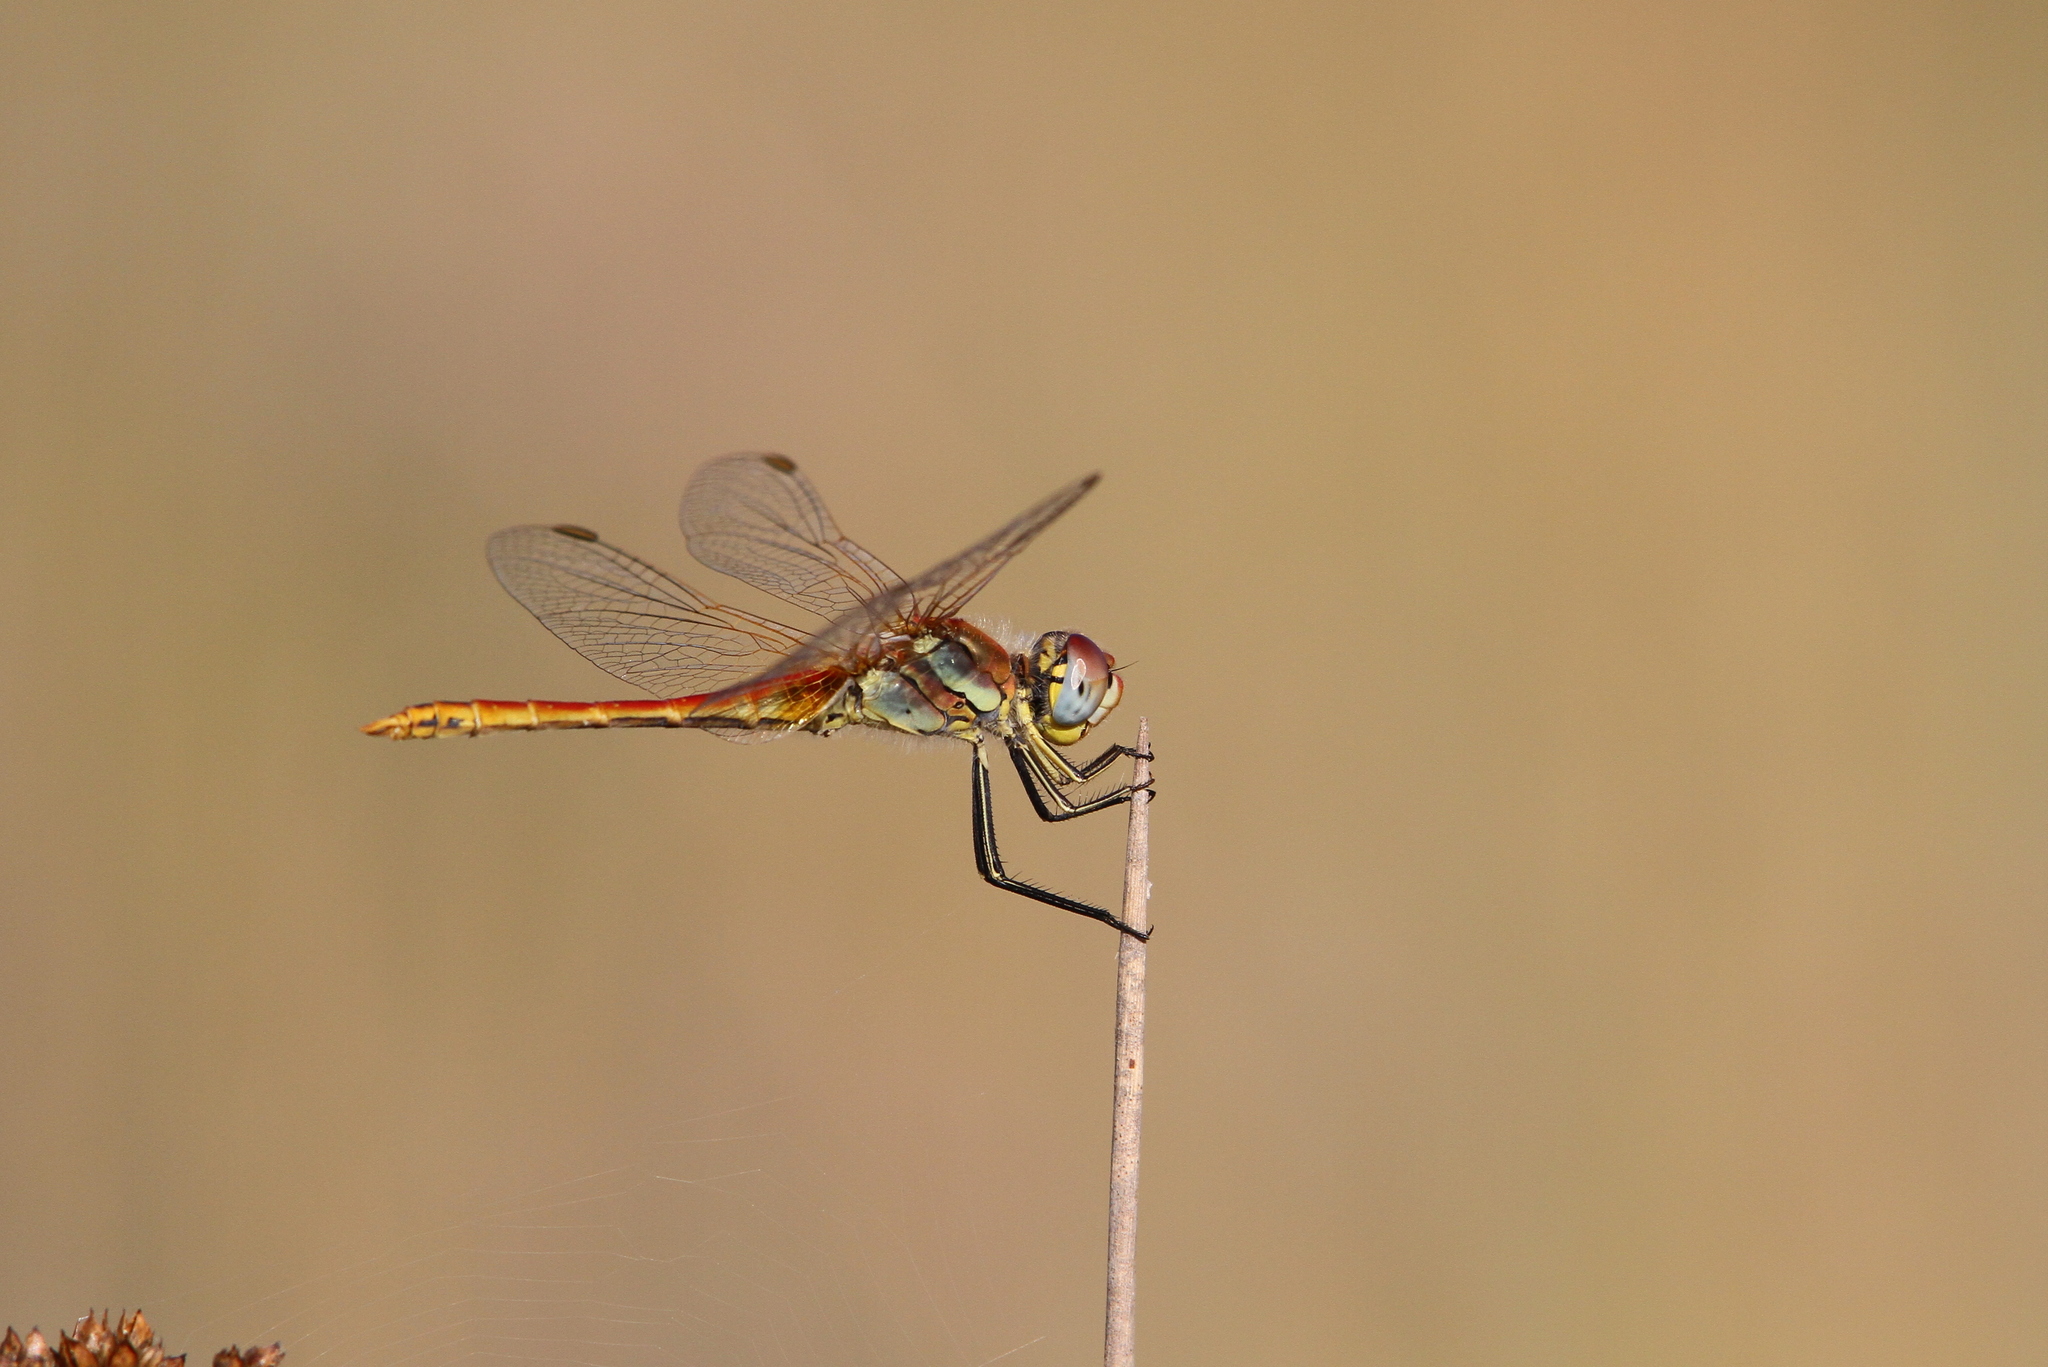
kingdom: Animalia
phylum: Arthropoda
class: Insecta
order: Odonata
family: Libellulidae
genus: Sympetrum
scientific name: Sympetrum fonscolombii
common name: Red-veined darter
